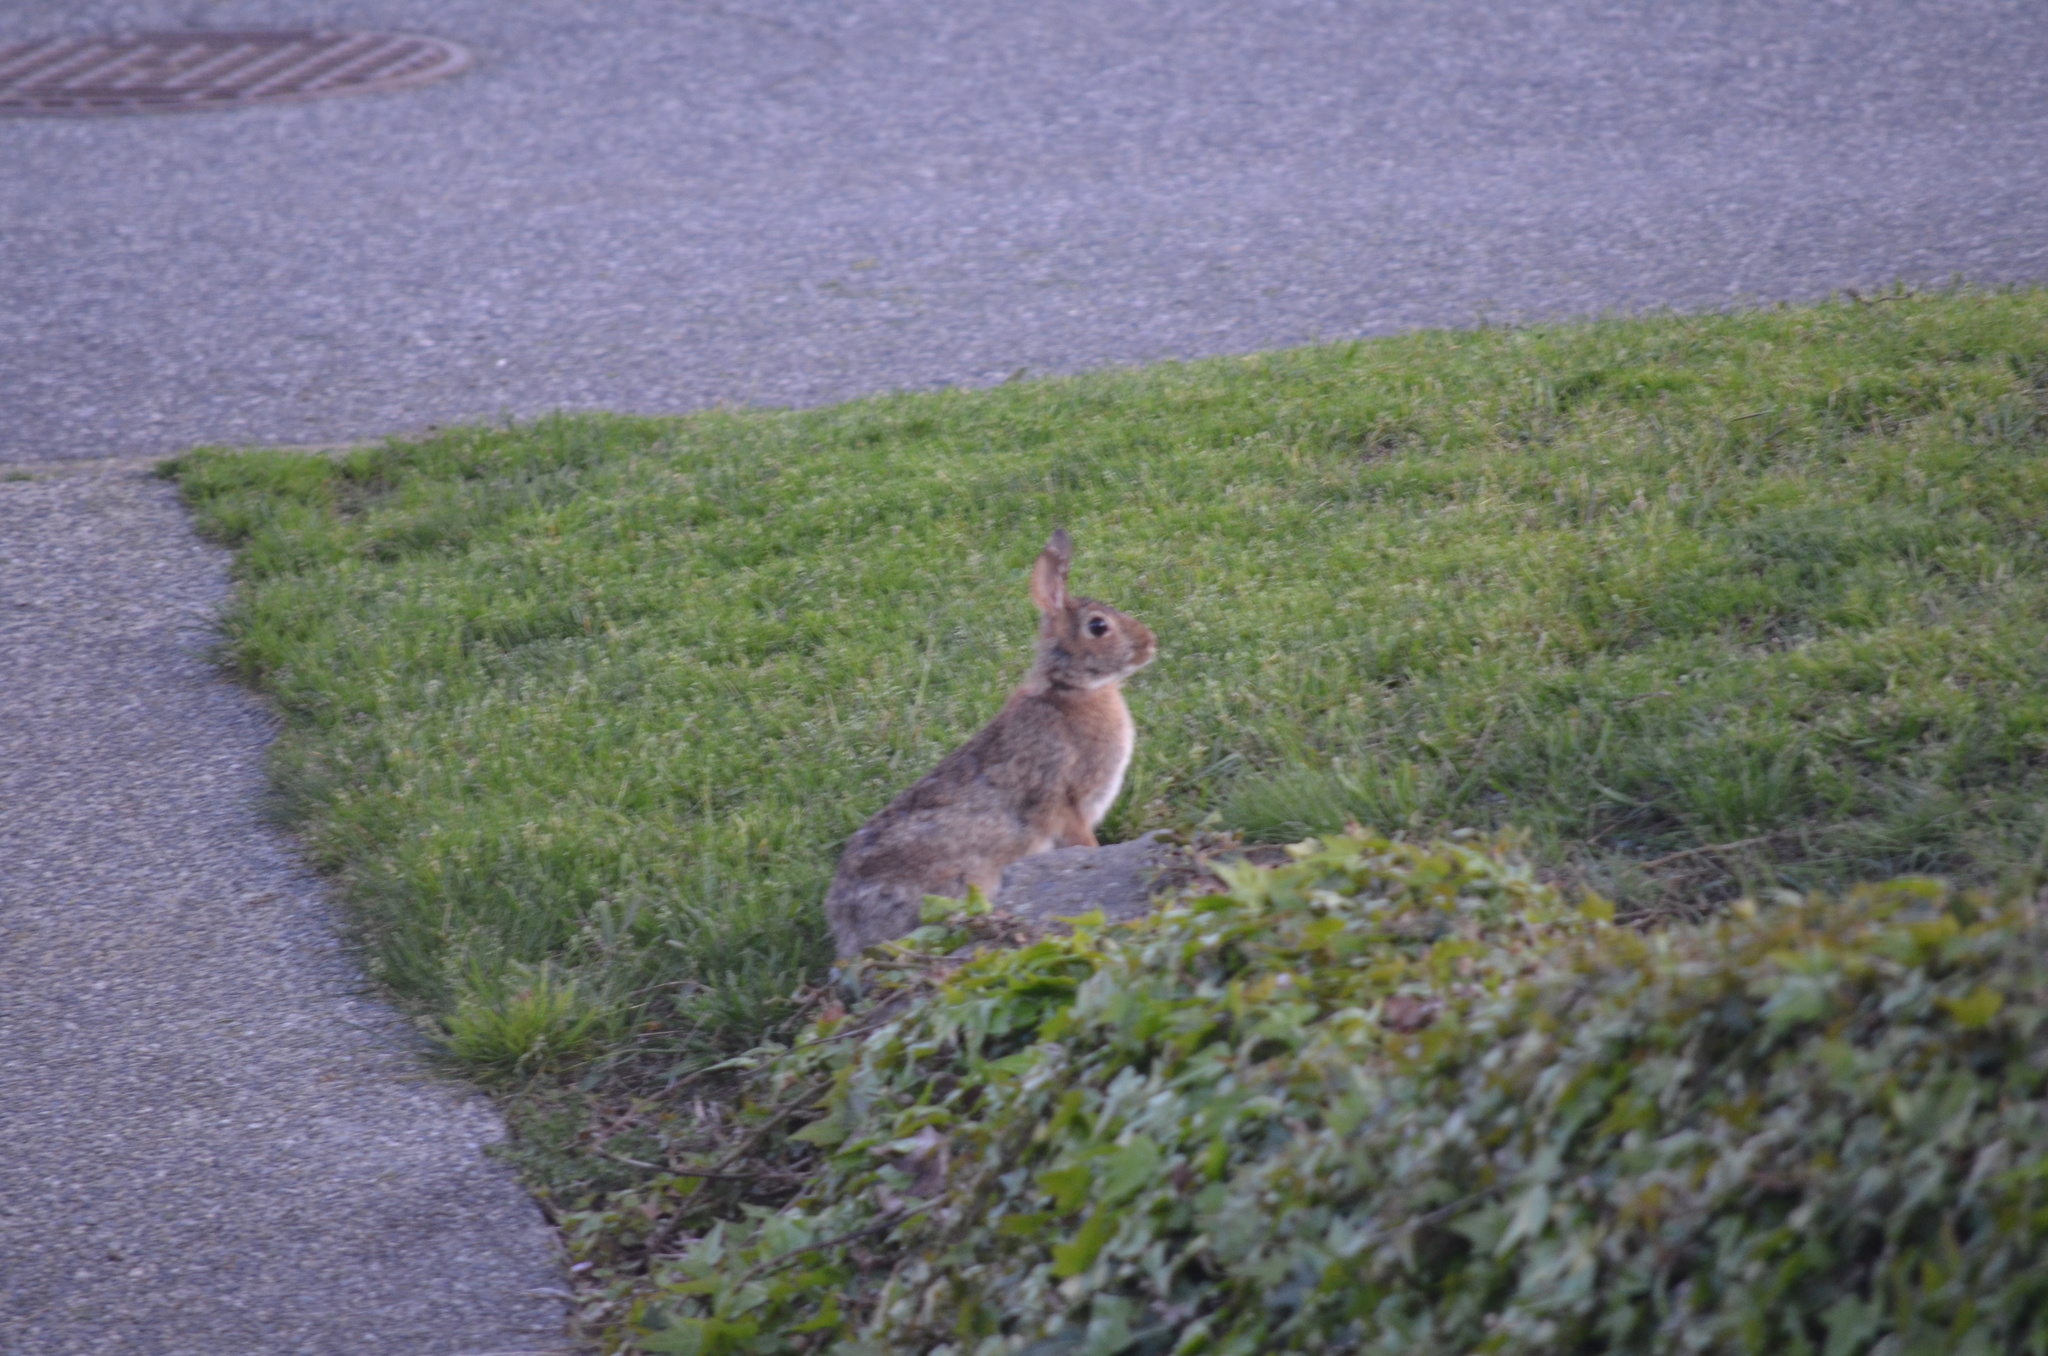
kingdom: Animalia
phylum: Chordata
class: Mammalia
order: Lagomorpha
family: Leporidae
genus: Sylvilagus
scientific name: Sylvilagus floridanus
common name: Eastern cottontail
